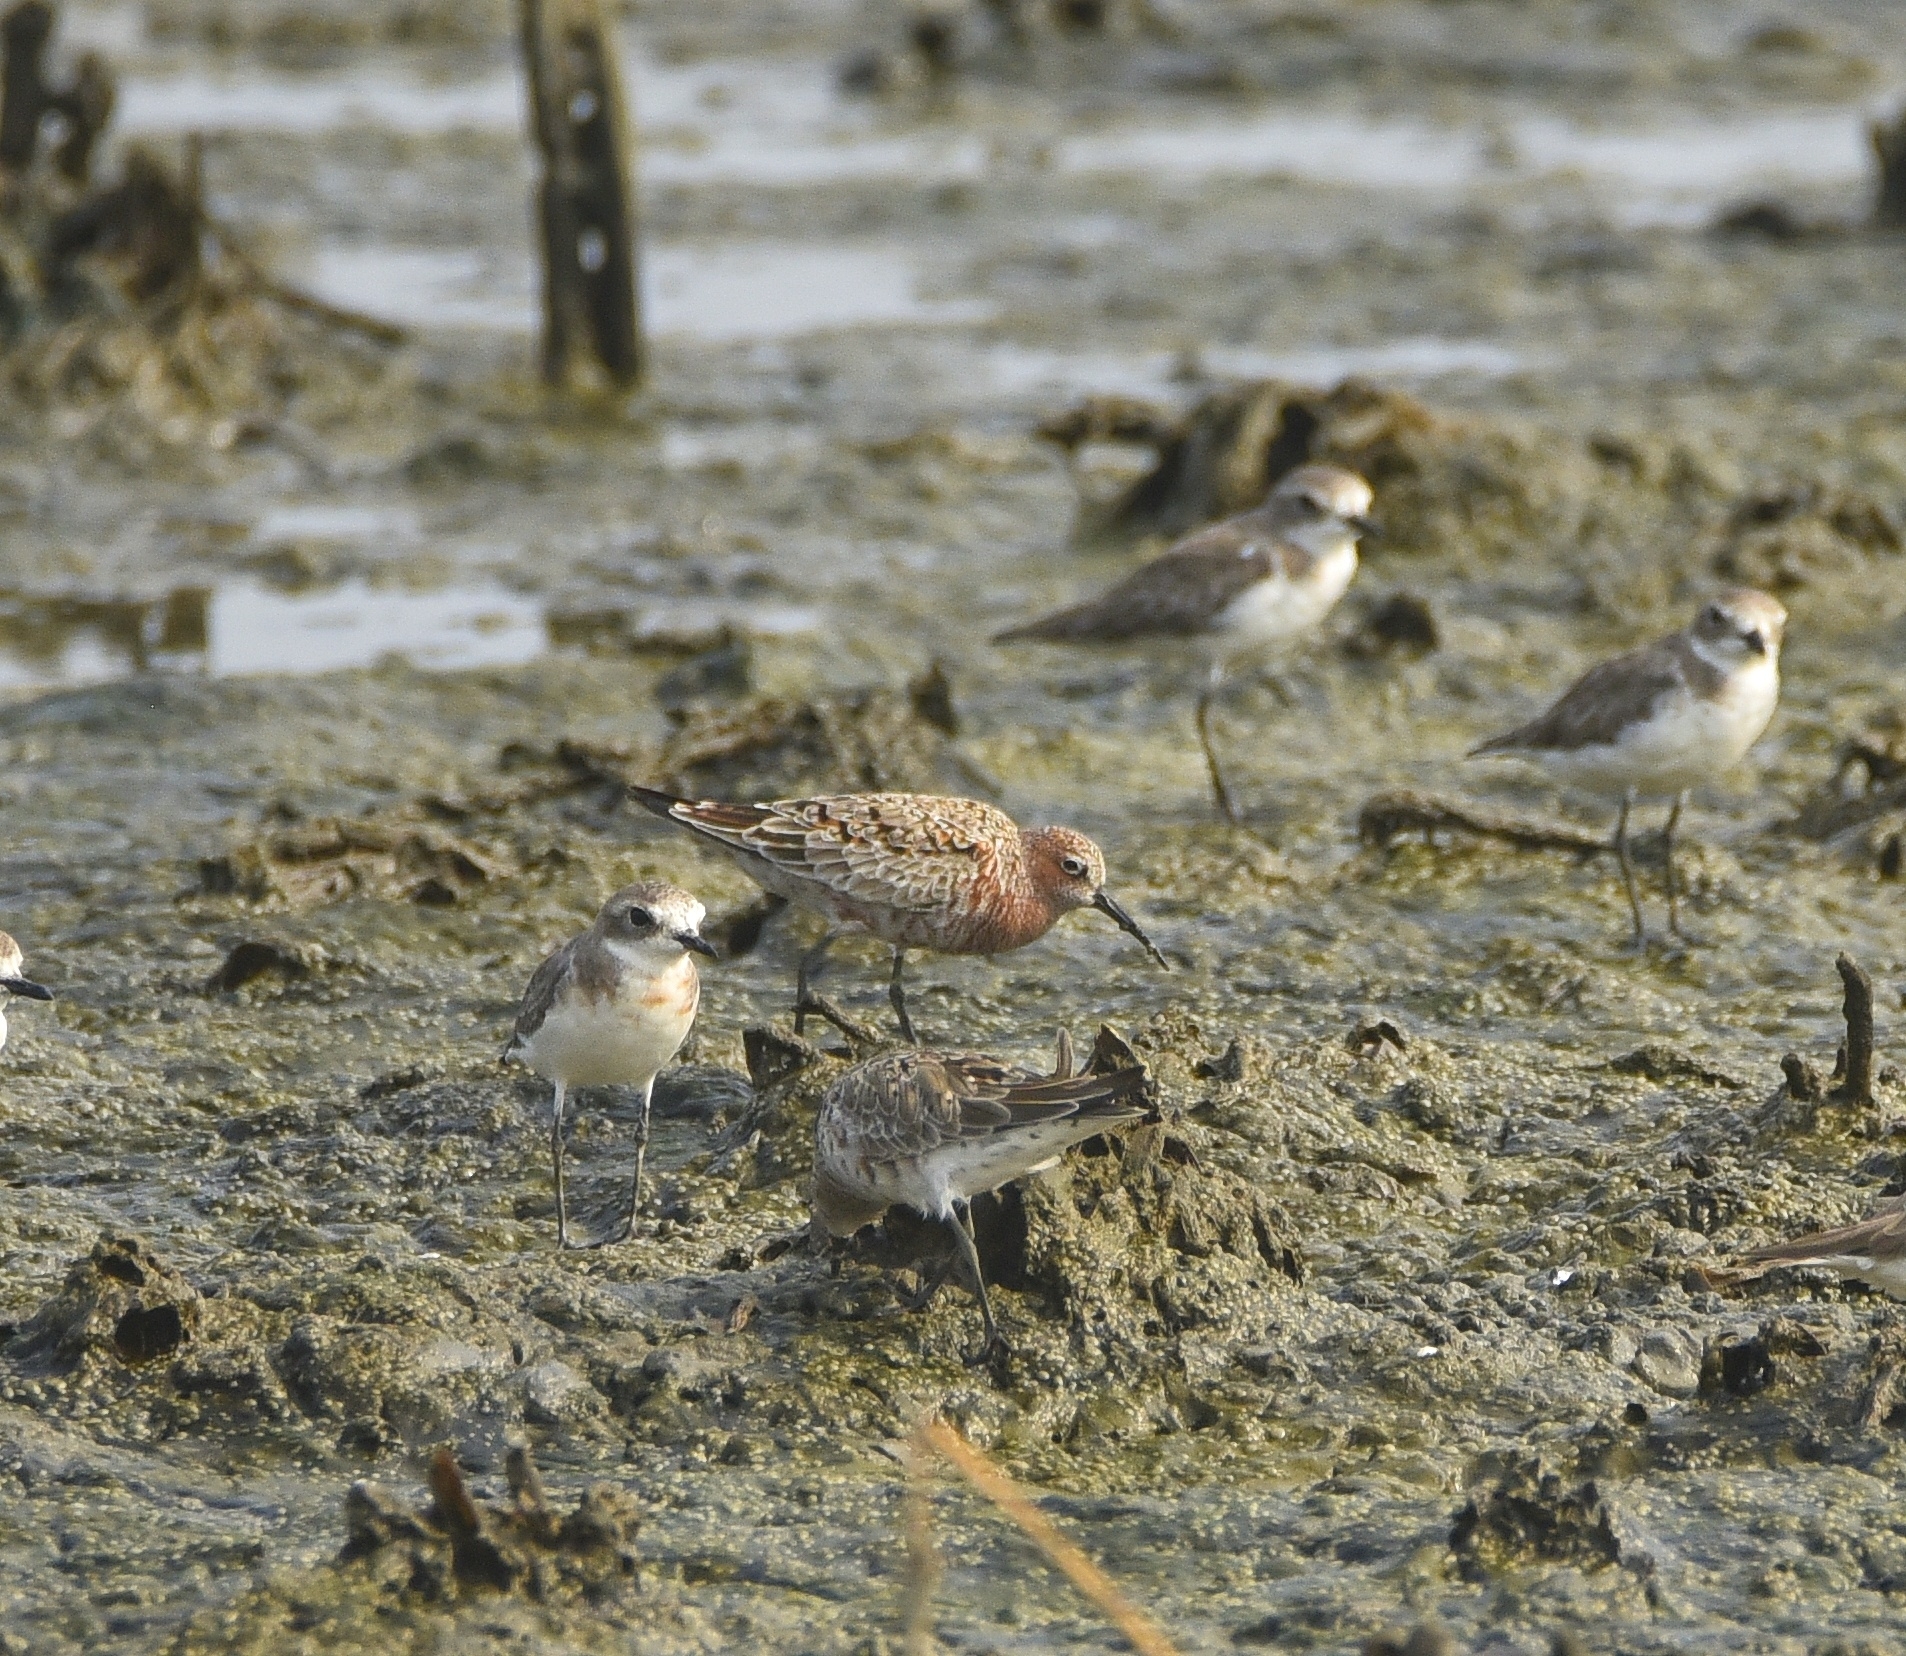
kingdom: Animalia
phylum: Chordata
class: Aves
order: Charadriiformes
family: Scolopacidae
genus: Calidris
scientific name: Calidris ferruginea
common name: Curlew sandpiper
